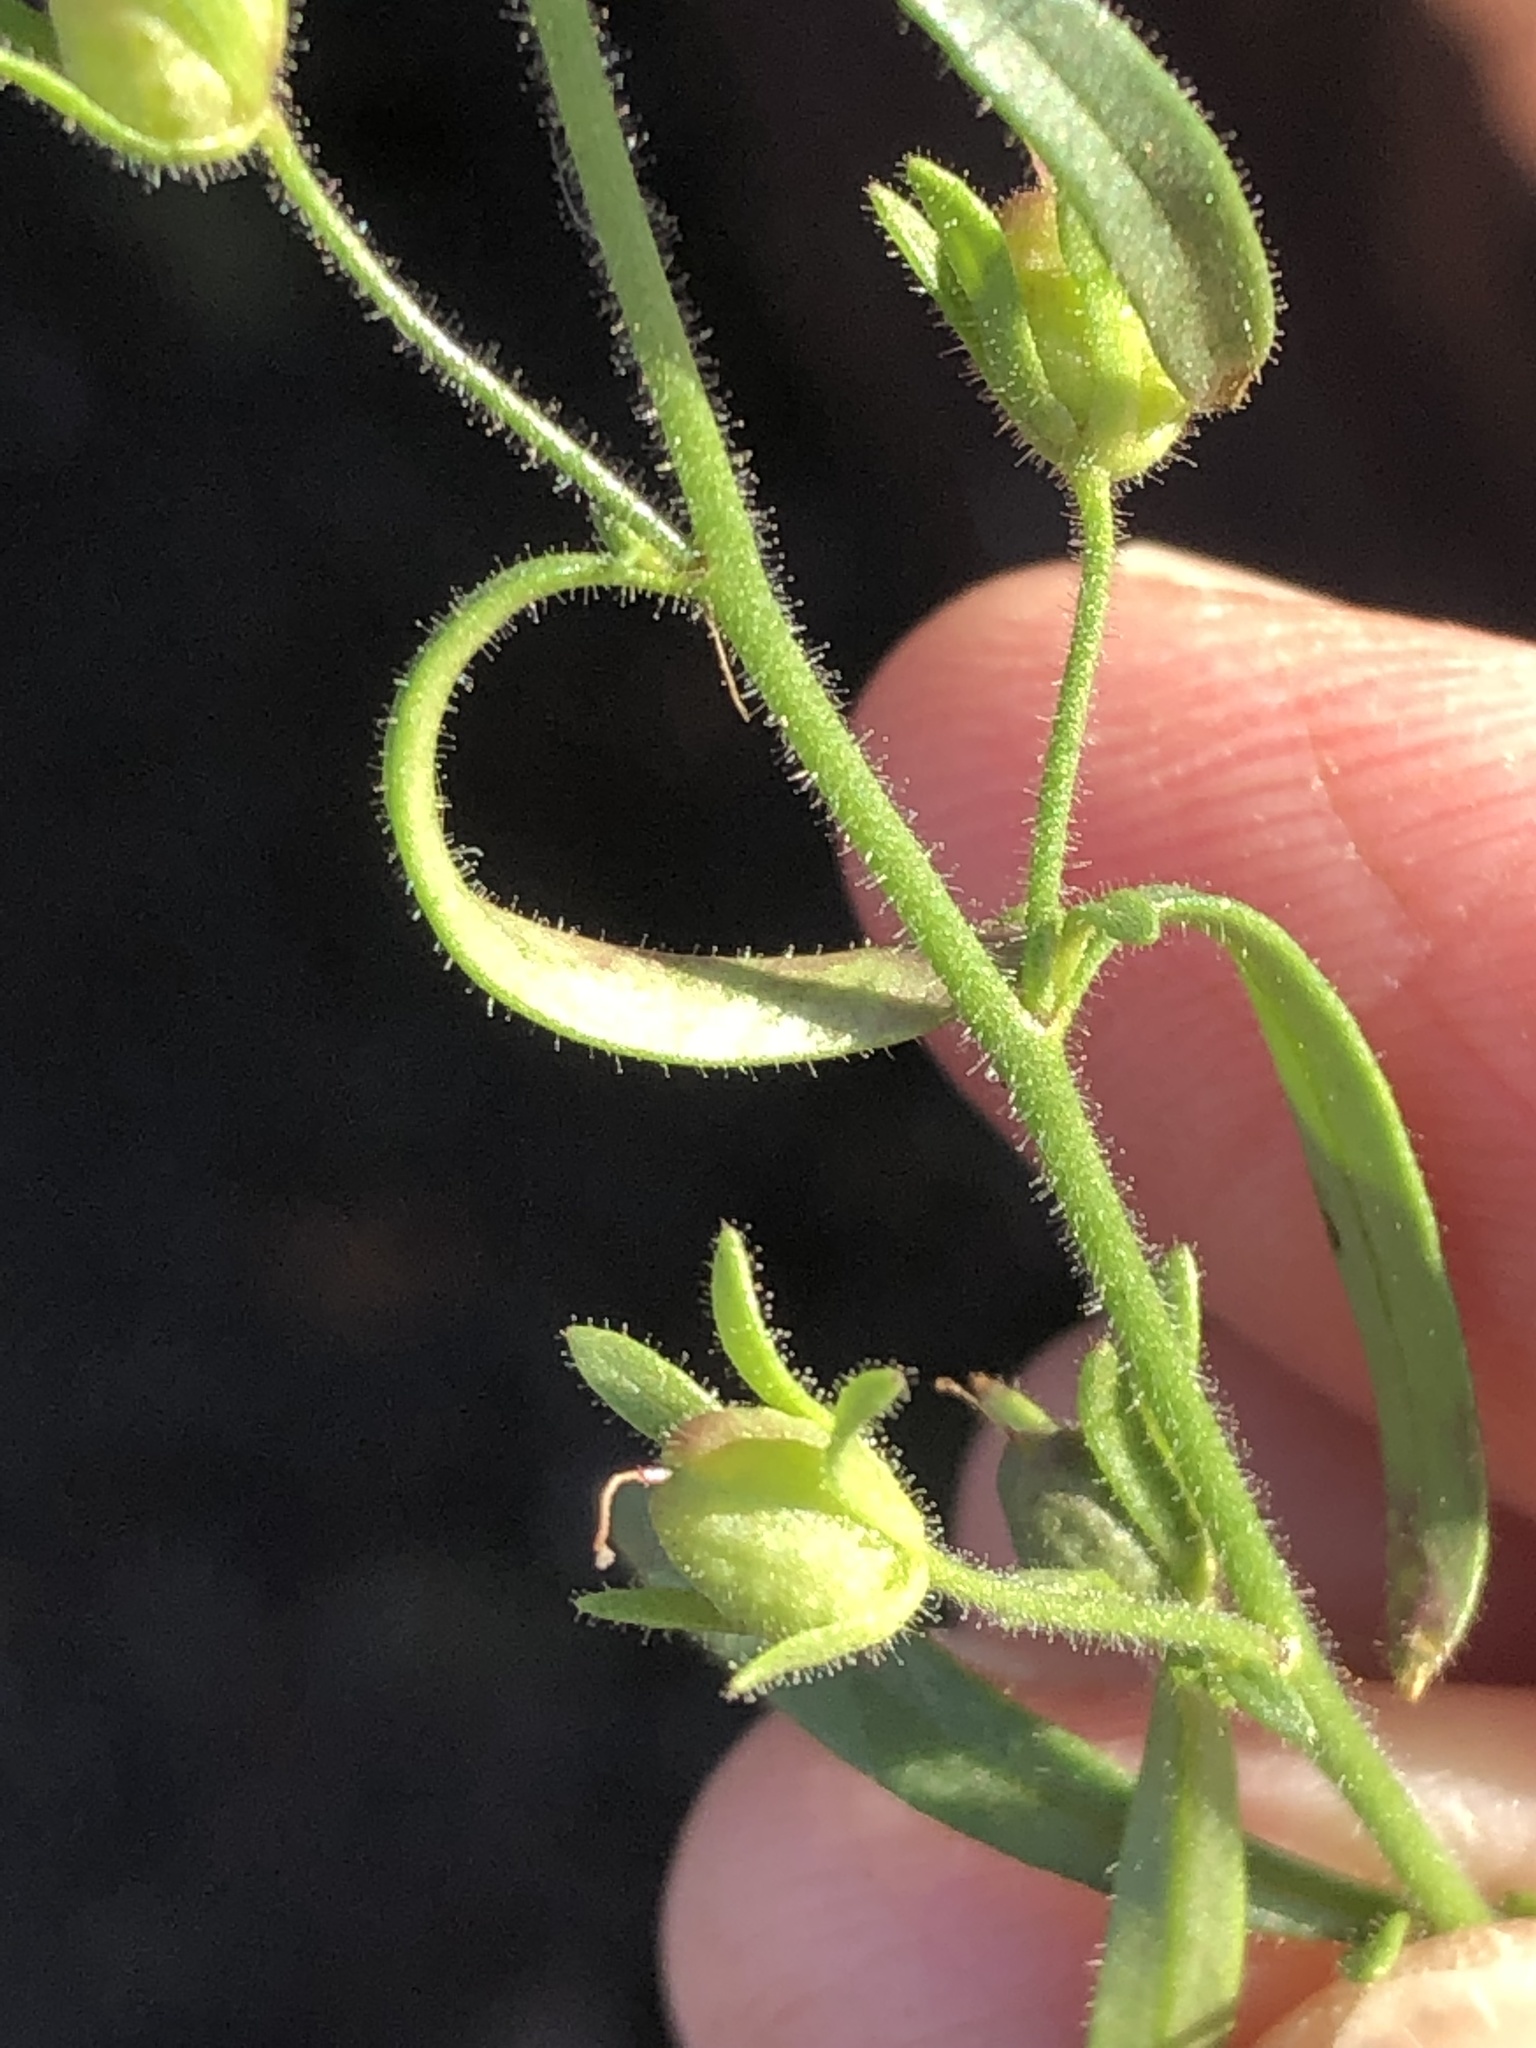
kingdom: Plantae
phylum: Tracheophyta
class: Magnoliopsida
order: Lamiales
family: Plantaginaceae
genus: Chaenorhinum
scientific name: Chaenorhinum minus
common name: Dwarf snapdragon
